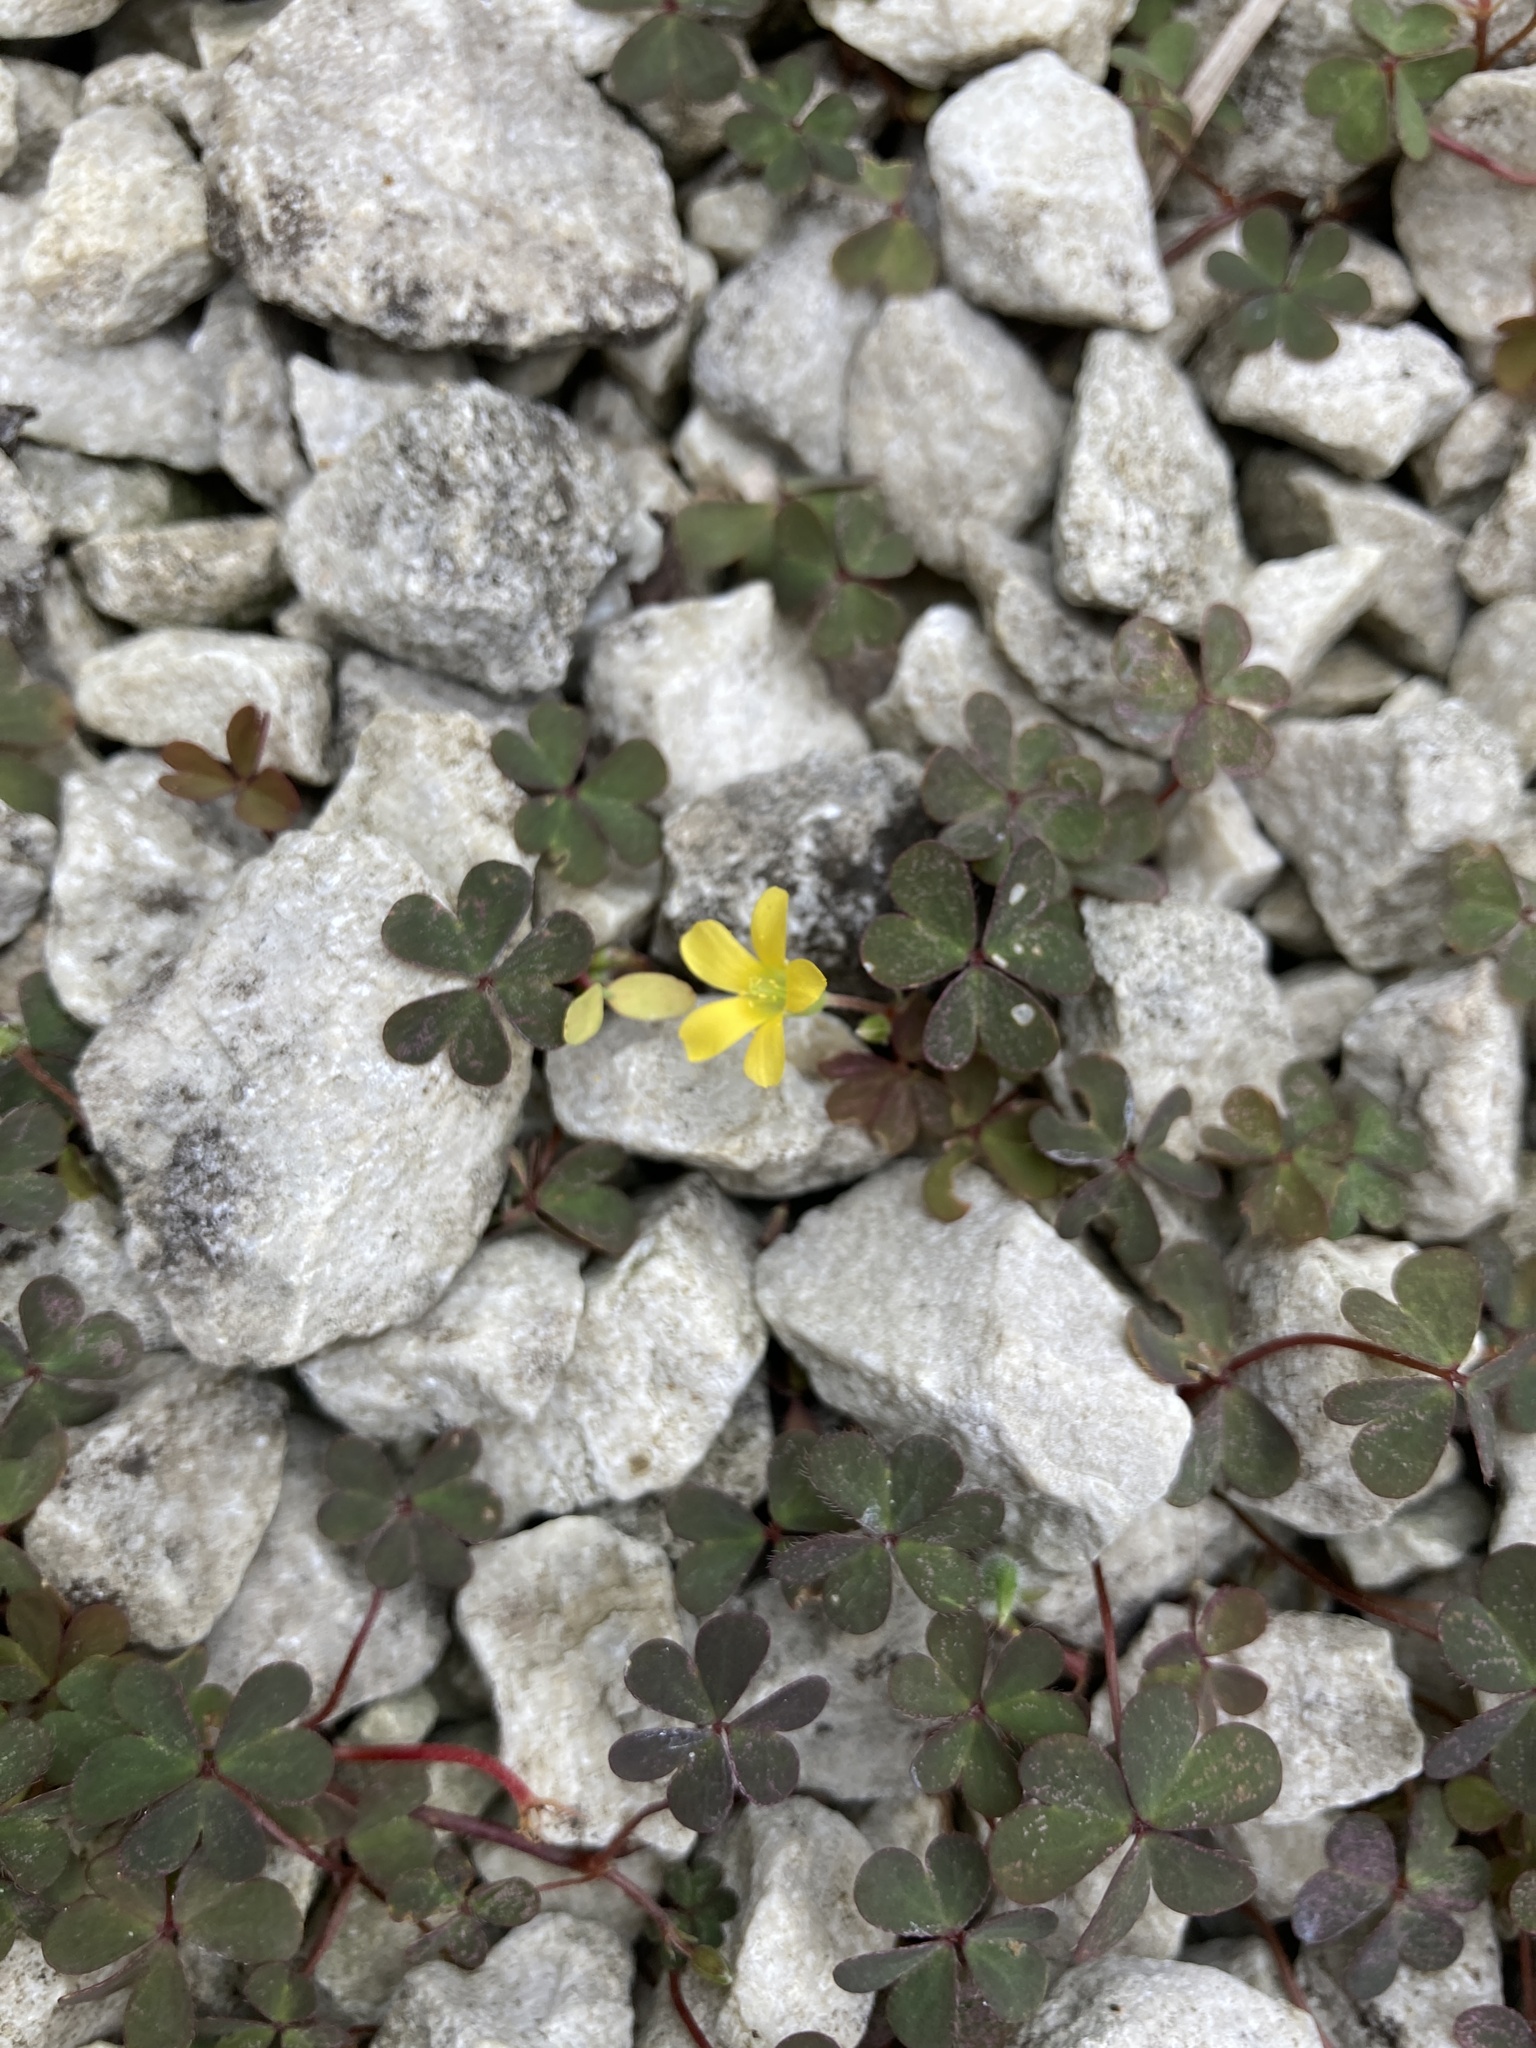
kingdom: Plantae
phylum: Tracheophyta
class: Magnoliopsida
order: Oxalidales
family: Oxalidaceae
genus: Oxalis
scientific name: Oxalis corniculata
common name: Procumbent yellow-sorrel
